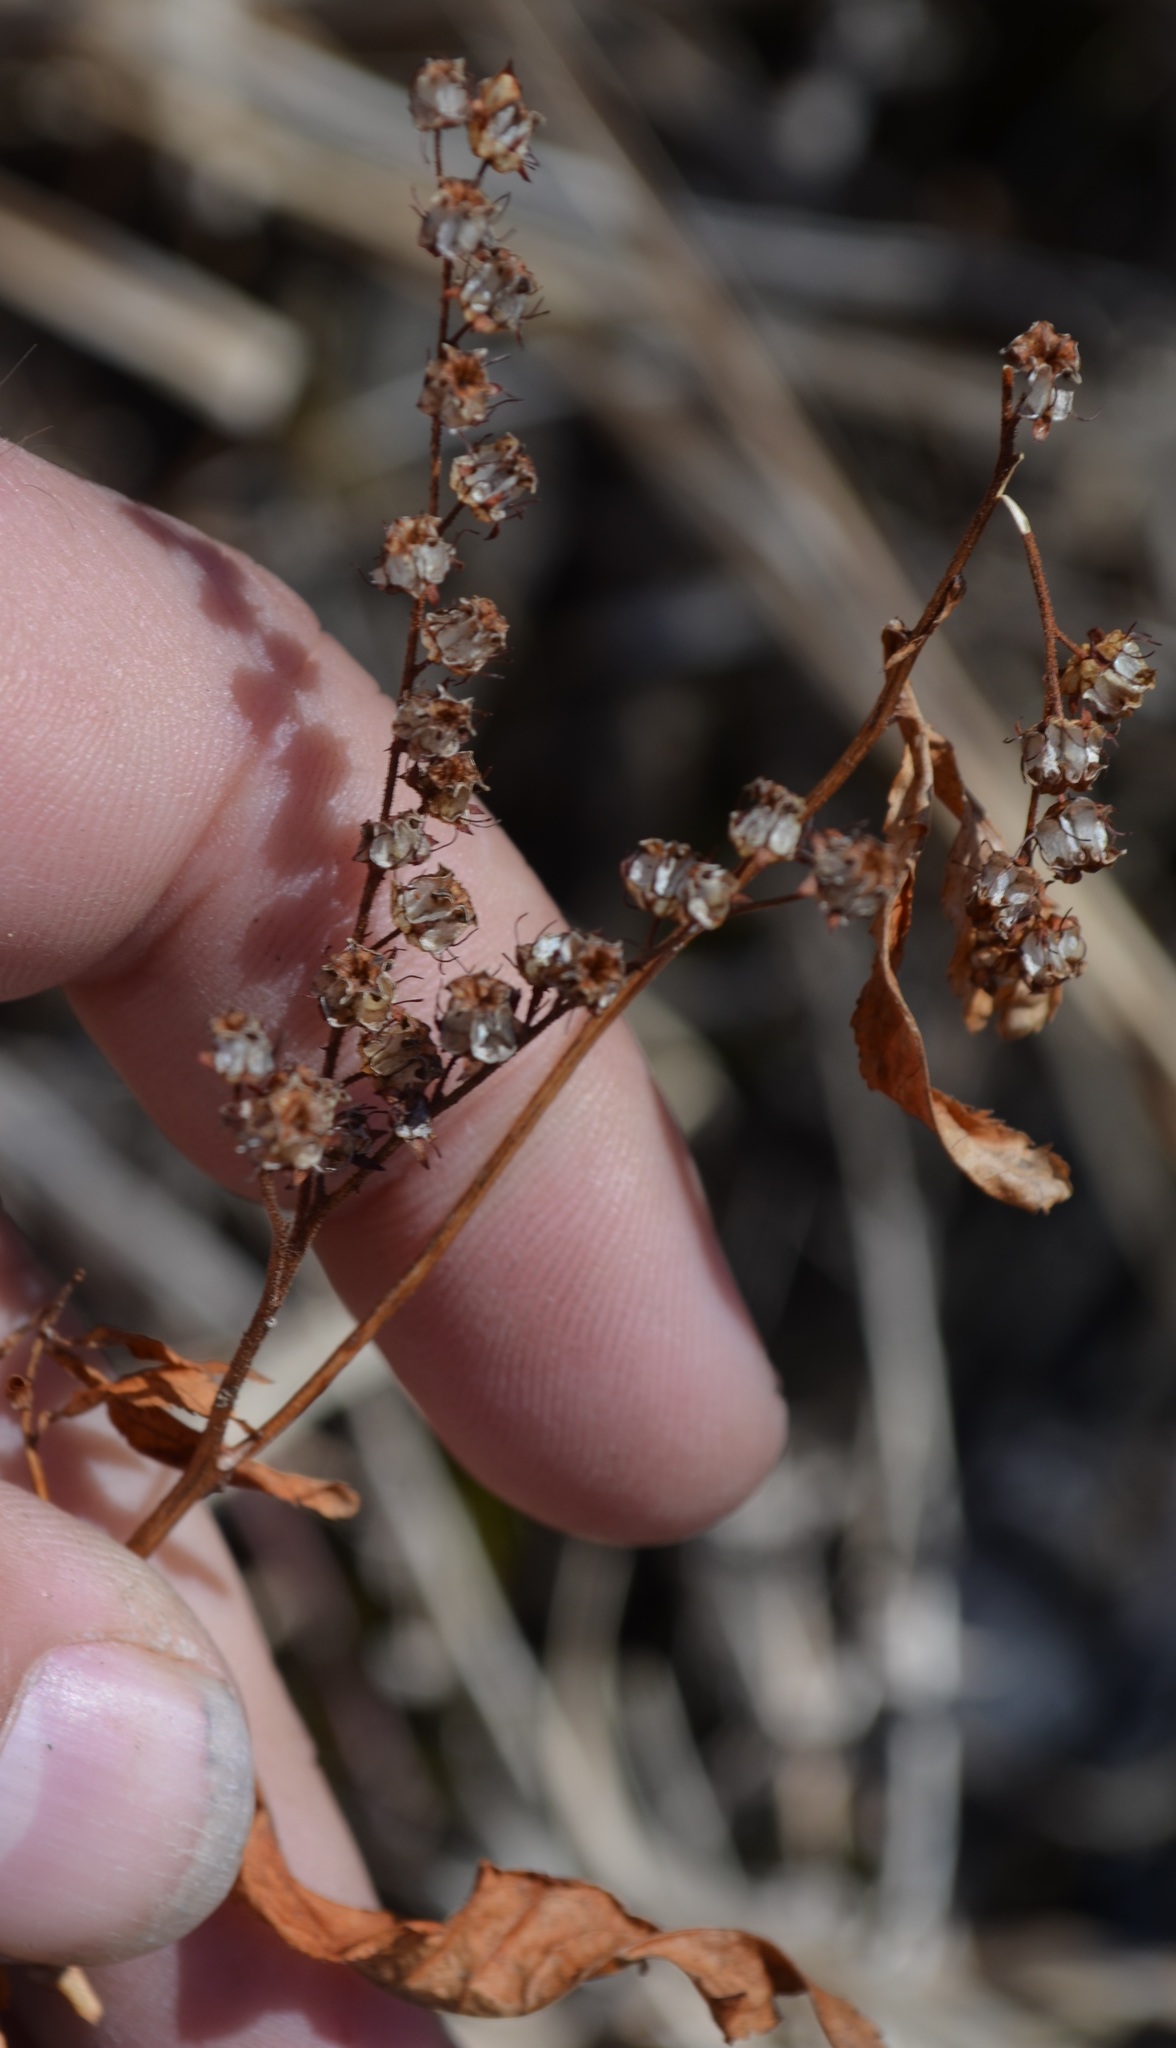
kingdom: Plantae
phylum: Tracheophyta
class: Magnoliopsida
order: Saxifragales
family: Penthoraceae
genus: Penthorum
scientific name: Penthorum sedoides
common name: Ditch stonecrop
